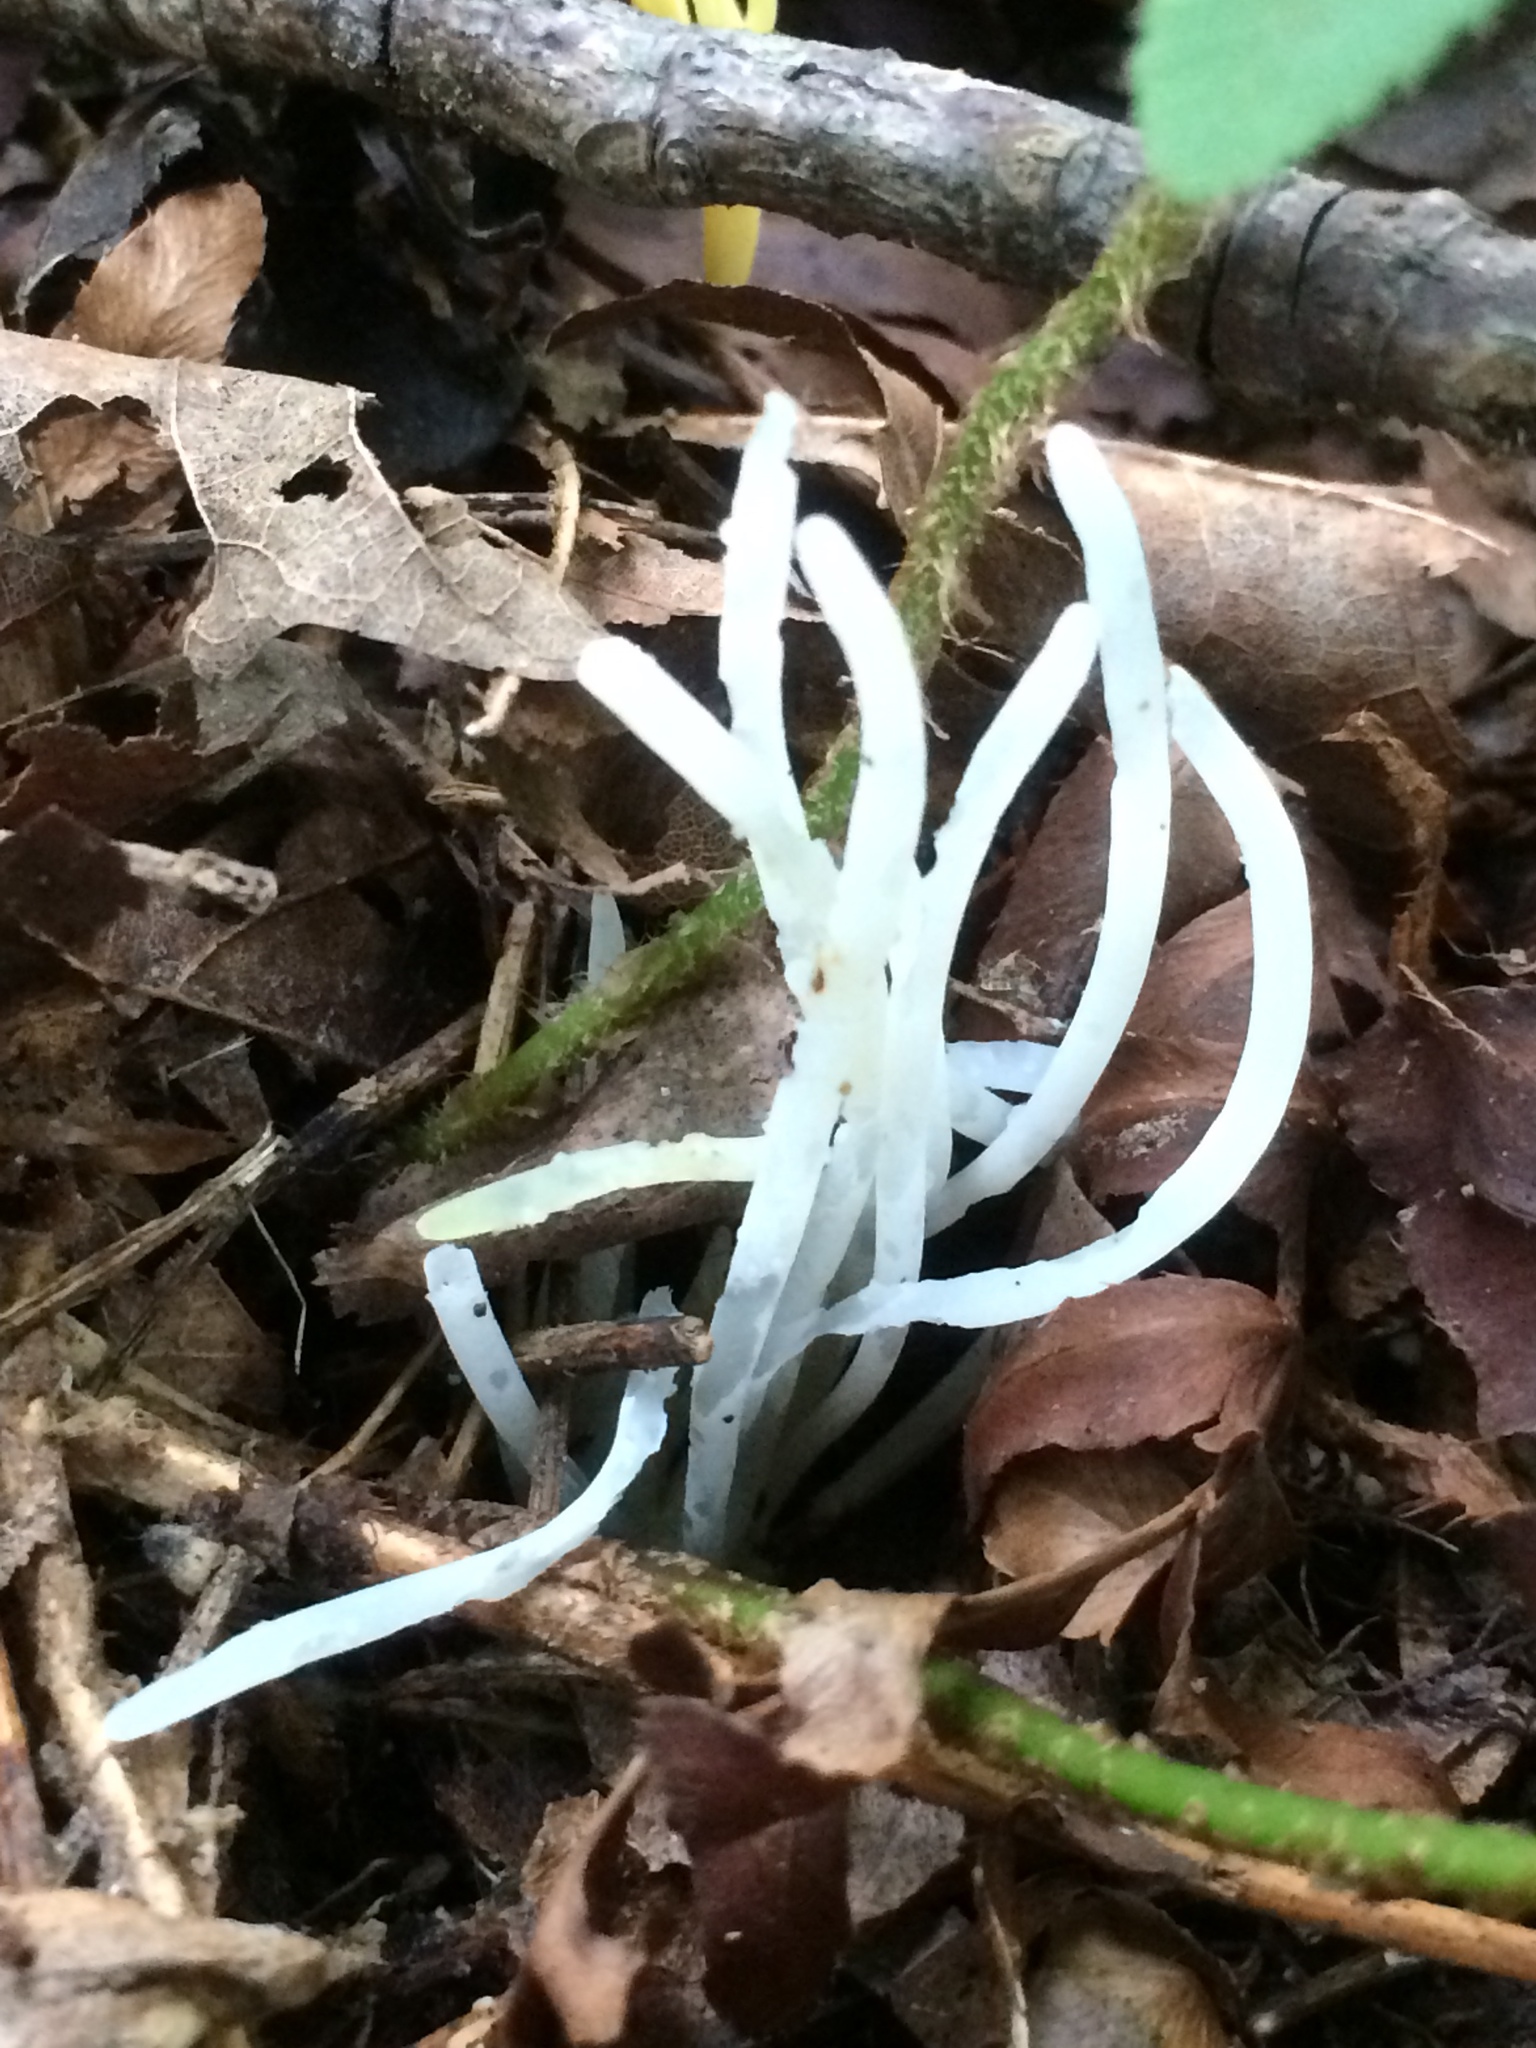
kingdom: Fungi
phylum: Basidiomycota
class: Agaricomycetes
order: Agaricales
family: Clavariaceae
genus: Clavaria
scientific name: Clavaria fragilis
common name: White spindles
